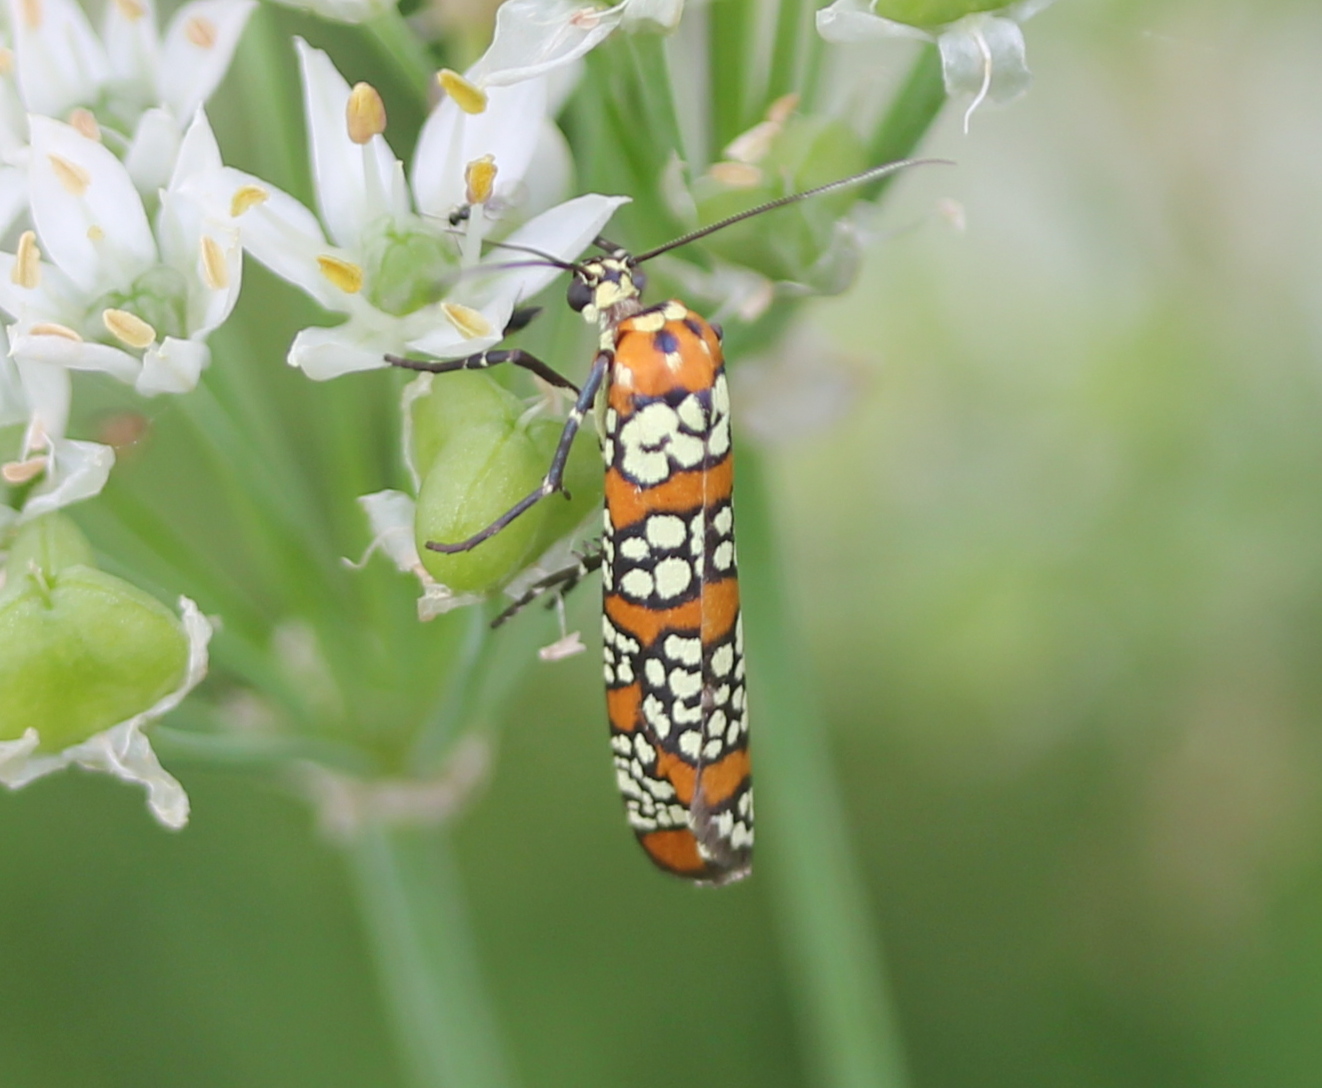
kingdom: Animalia
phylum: Arthropoda
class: Insecta
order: Lepidoptera
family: Attevidae
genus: Atteva
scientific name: Atteva punctella
